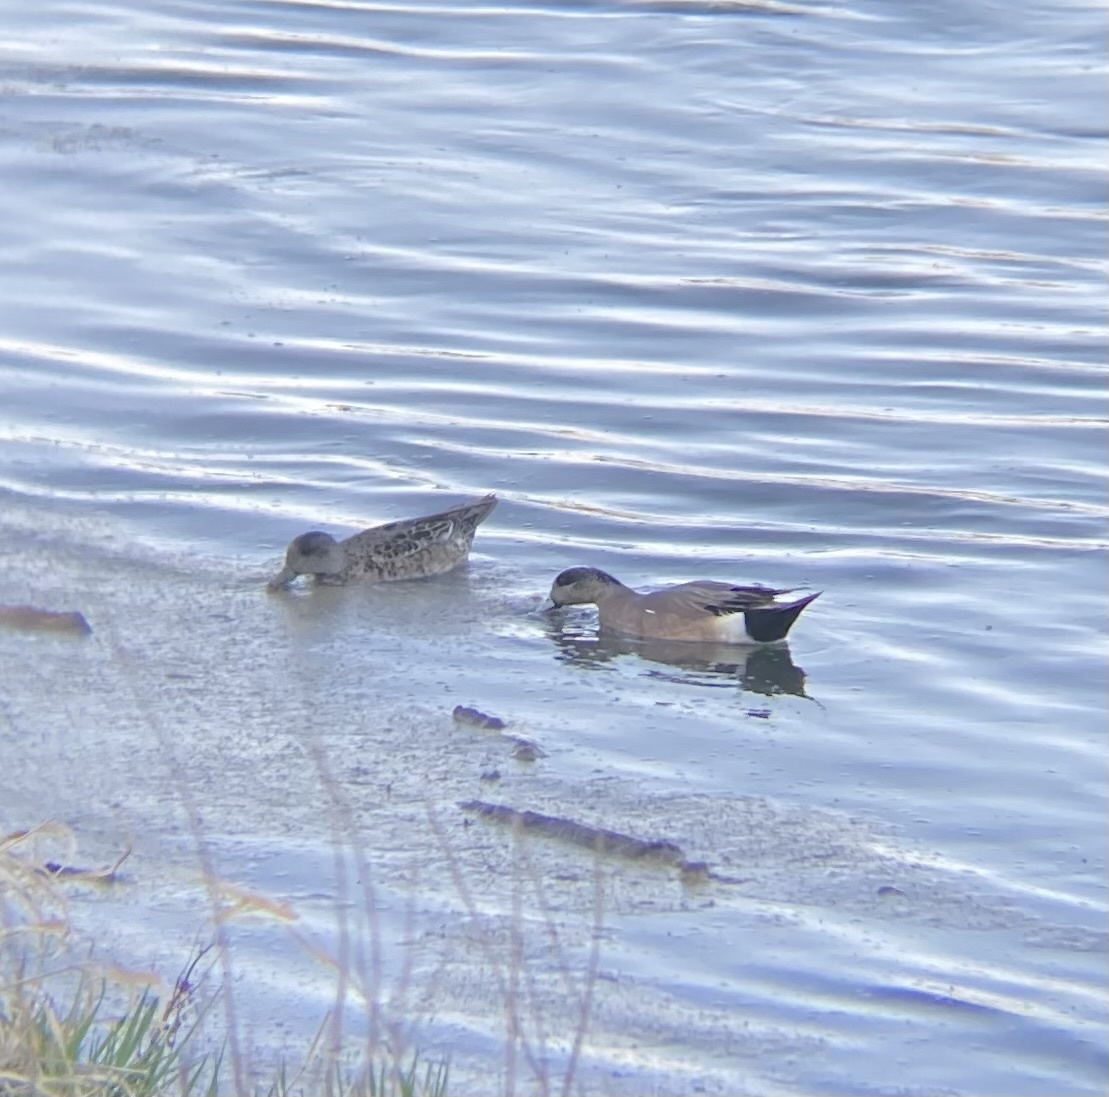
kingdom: Animalia
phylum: Chordata
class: Aves
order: Anseriformes
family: Anatidae
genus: Mareca
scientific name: Mareca americana
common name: American wigeon
